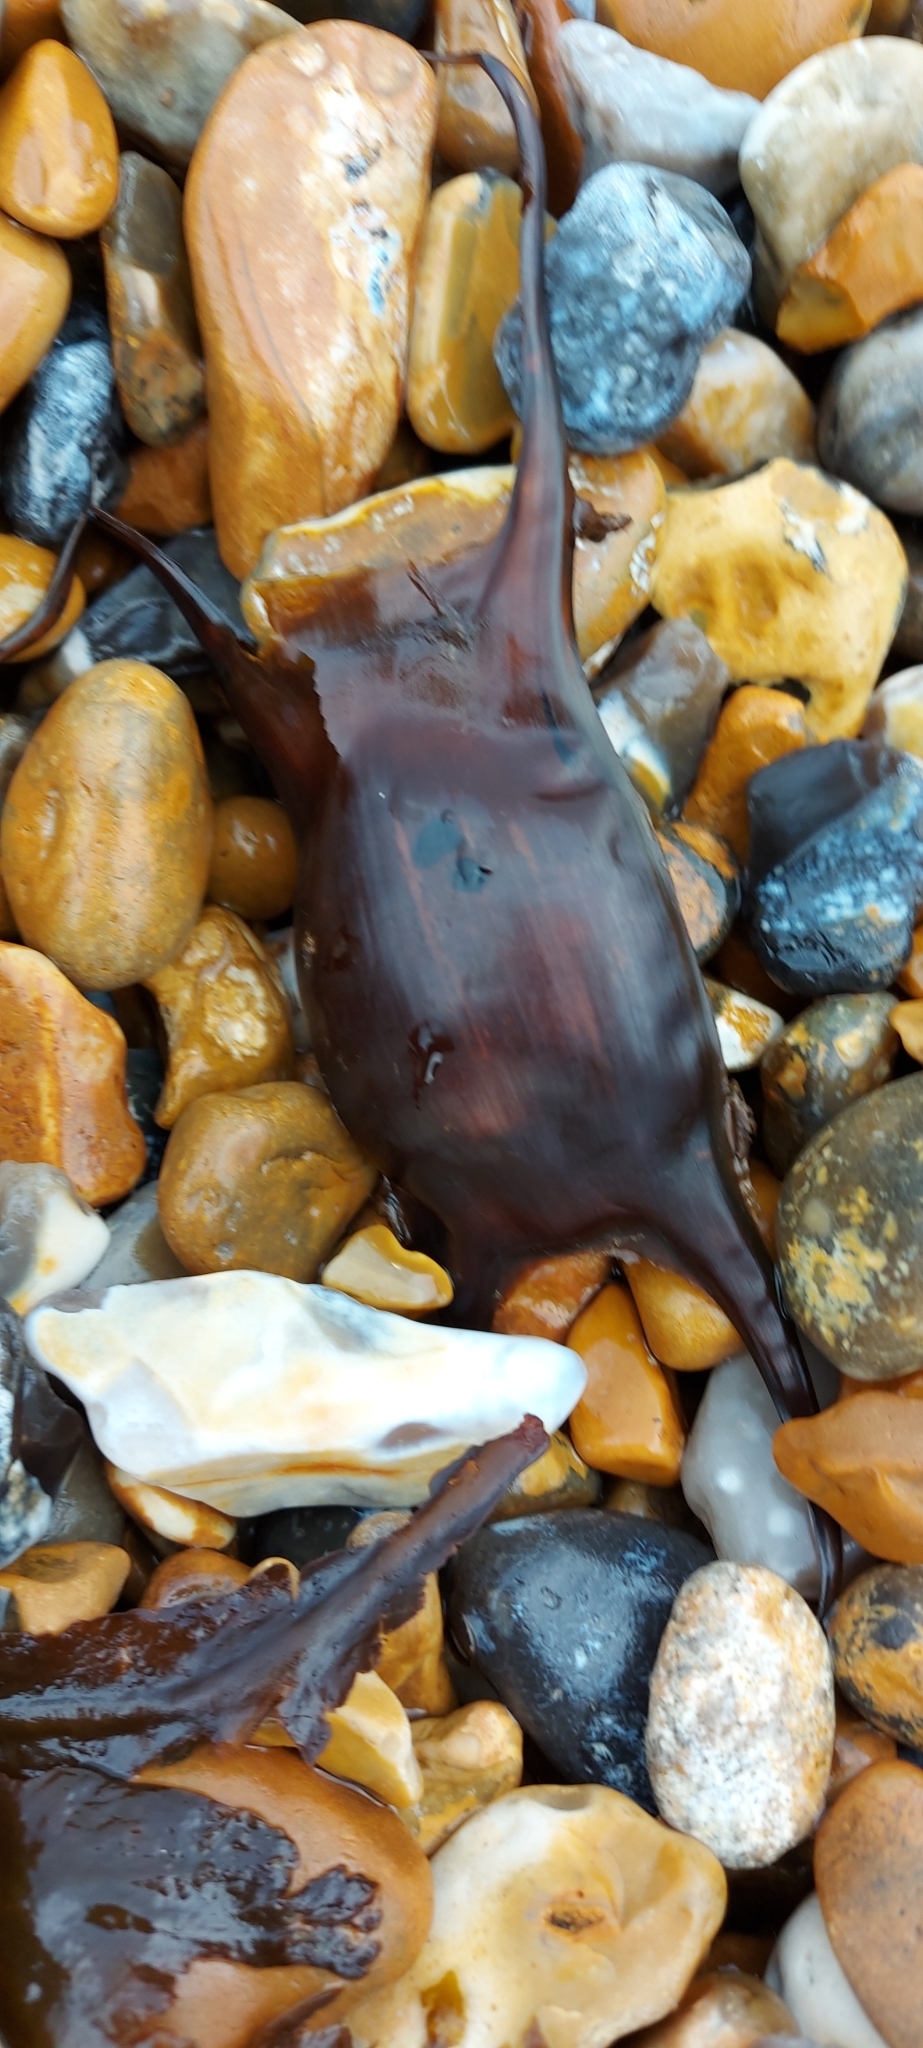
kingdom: Animalia
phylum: Chordata
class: Elasmobranchii
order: Rajiformes
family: Rajidae
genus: Raja
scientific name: Raja montagui
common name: Spotted ray
